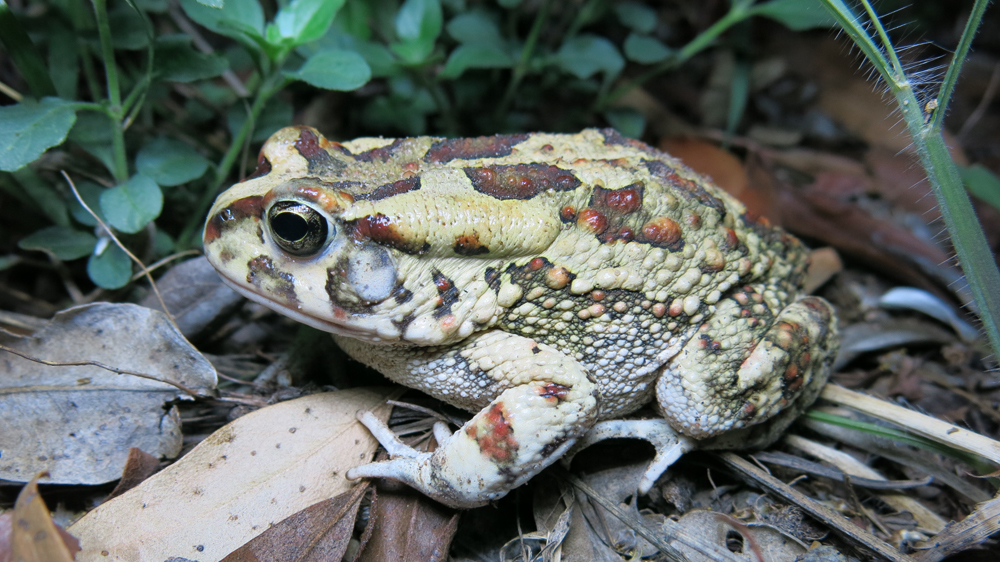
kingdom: Animalia
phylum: Chordata
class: Amphibia
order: Anura
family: Bufonidae
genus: Sclerophrys
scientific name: Sclerophrys garmani
